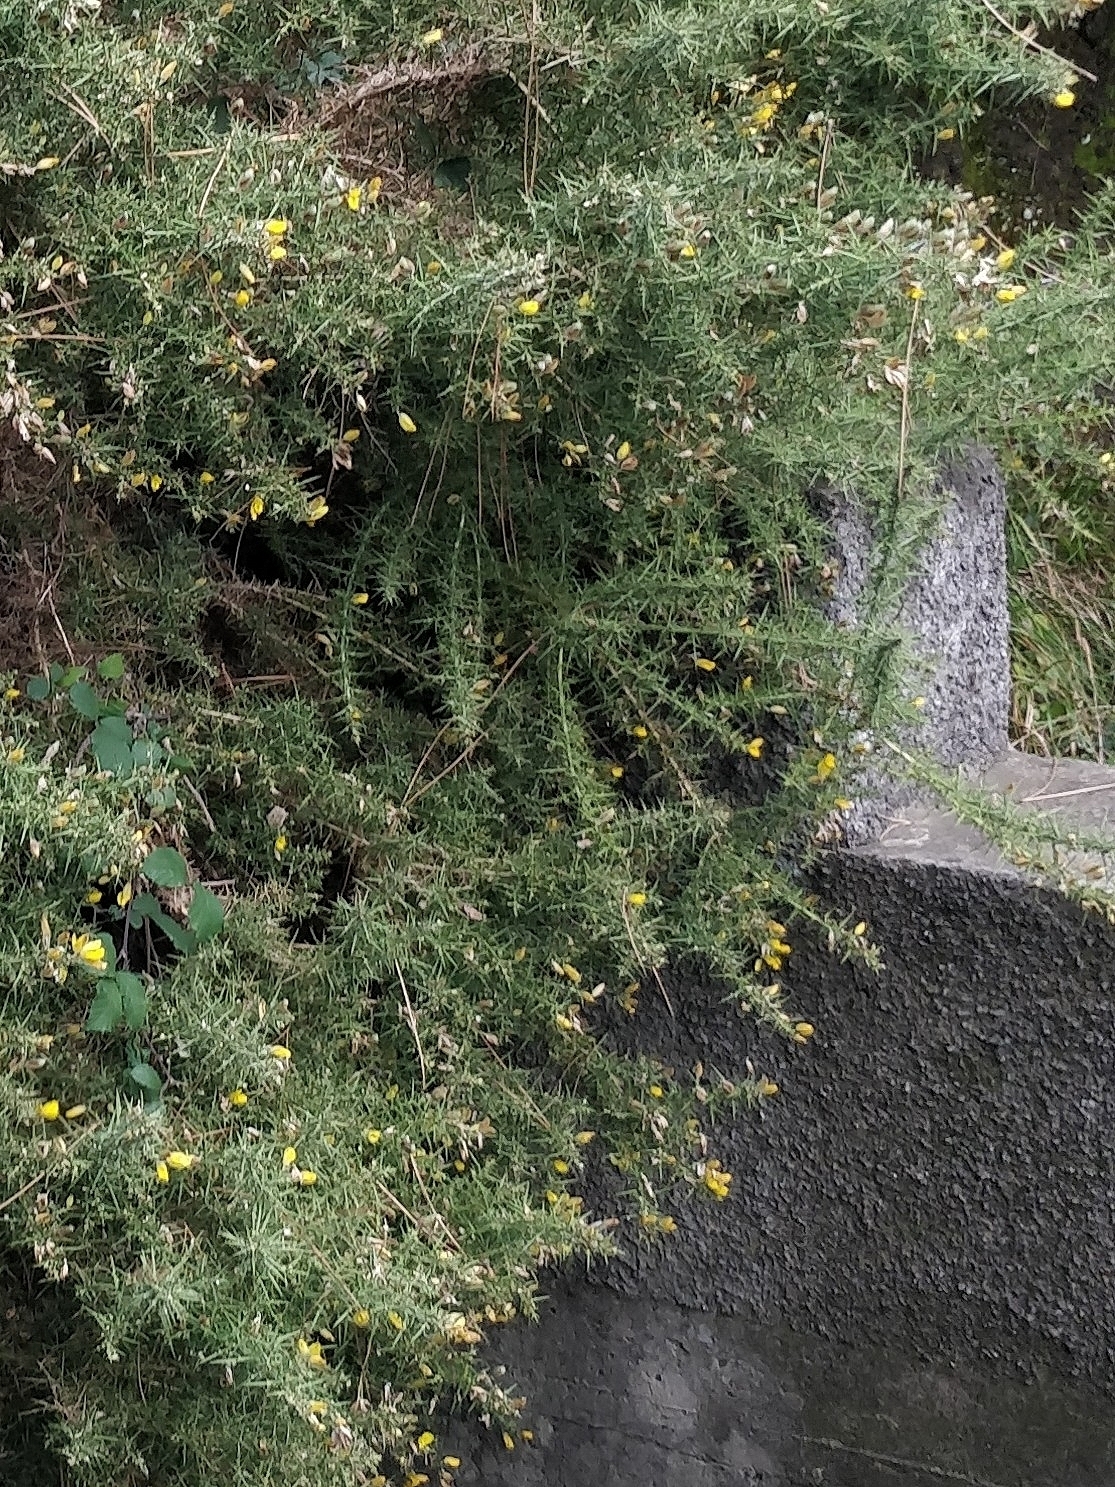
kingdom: Plantae
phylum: Tracheophyta
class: Magnoliopsida
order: Fabales
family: Fabaceae
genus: Ulex
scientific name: Ulex europaeus
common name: Common gorse
